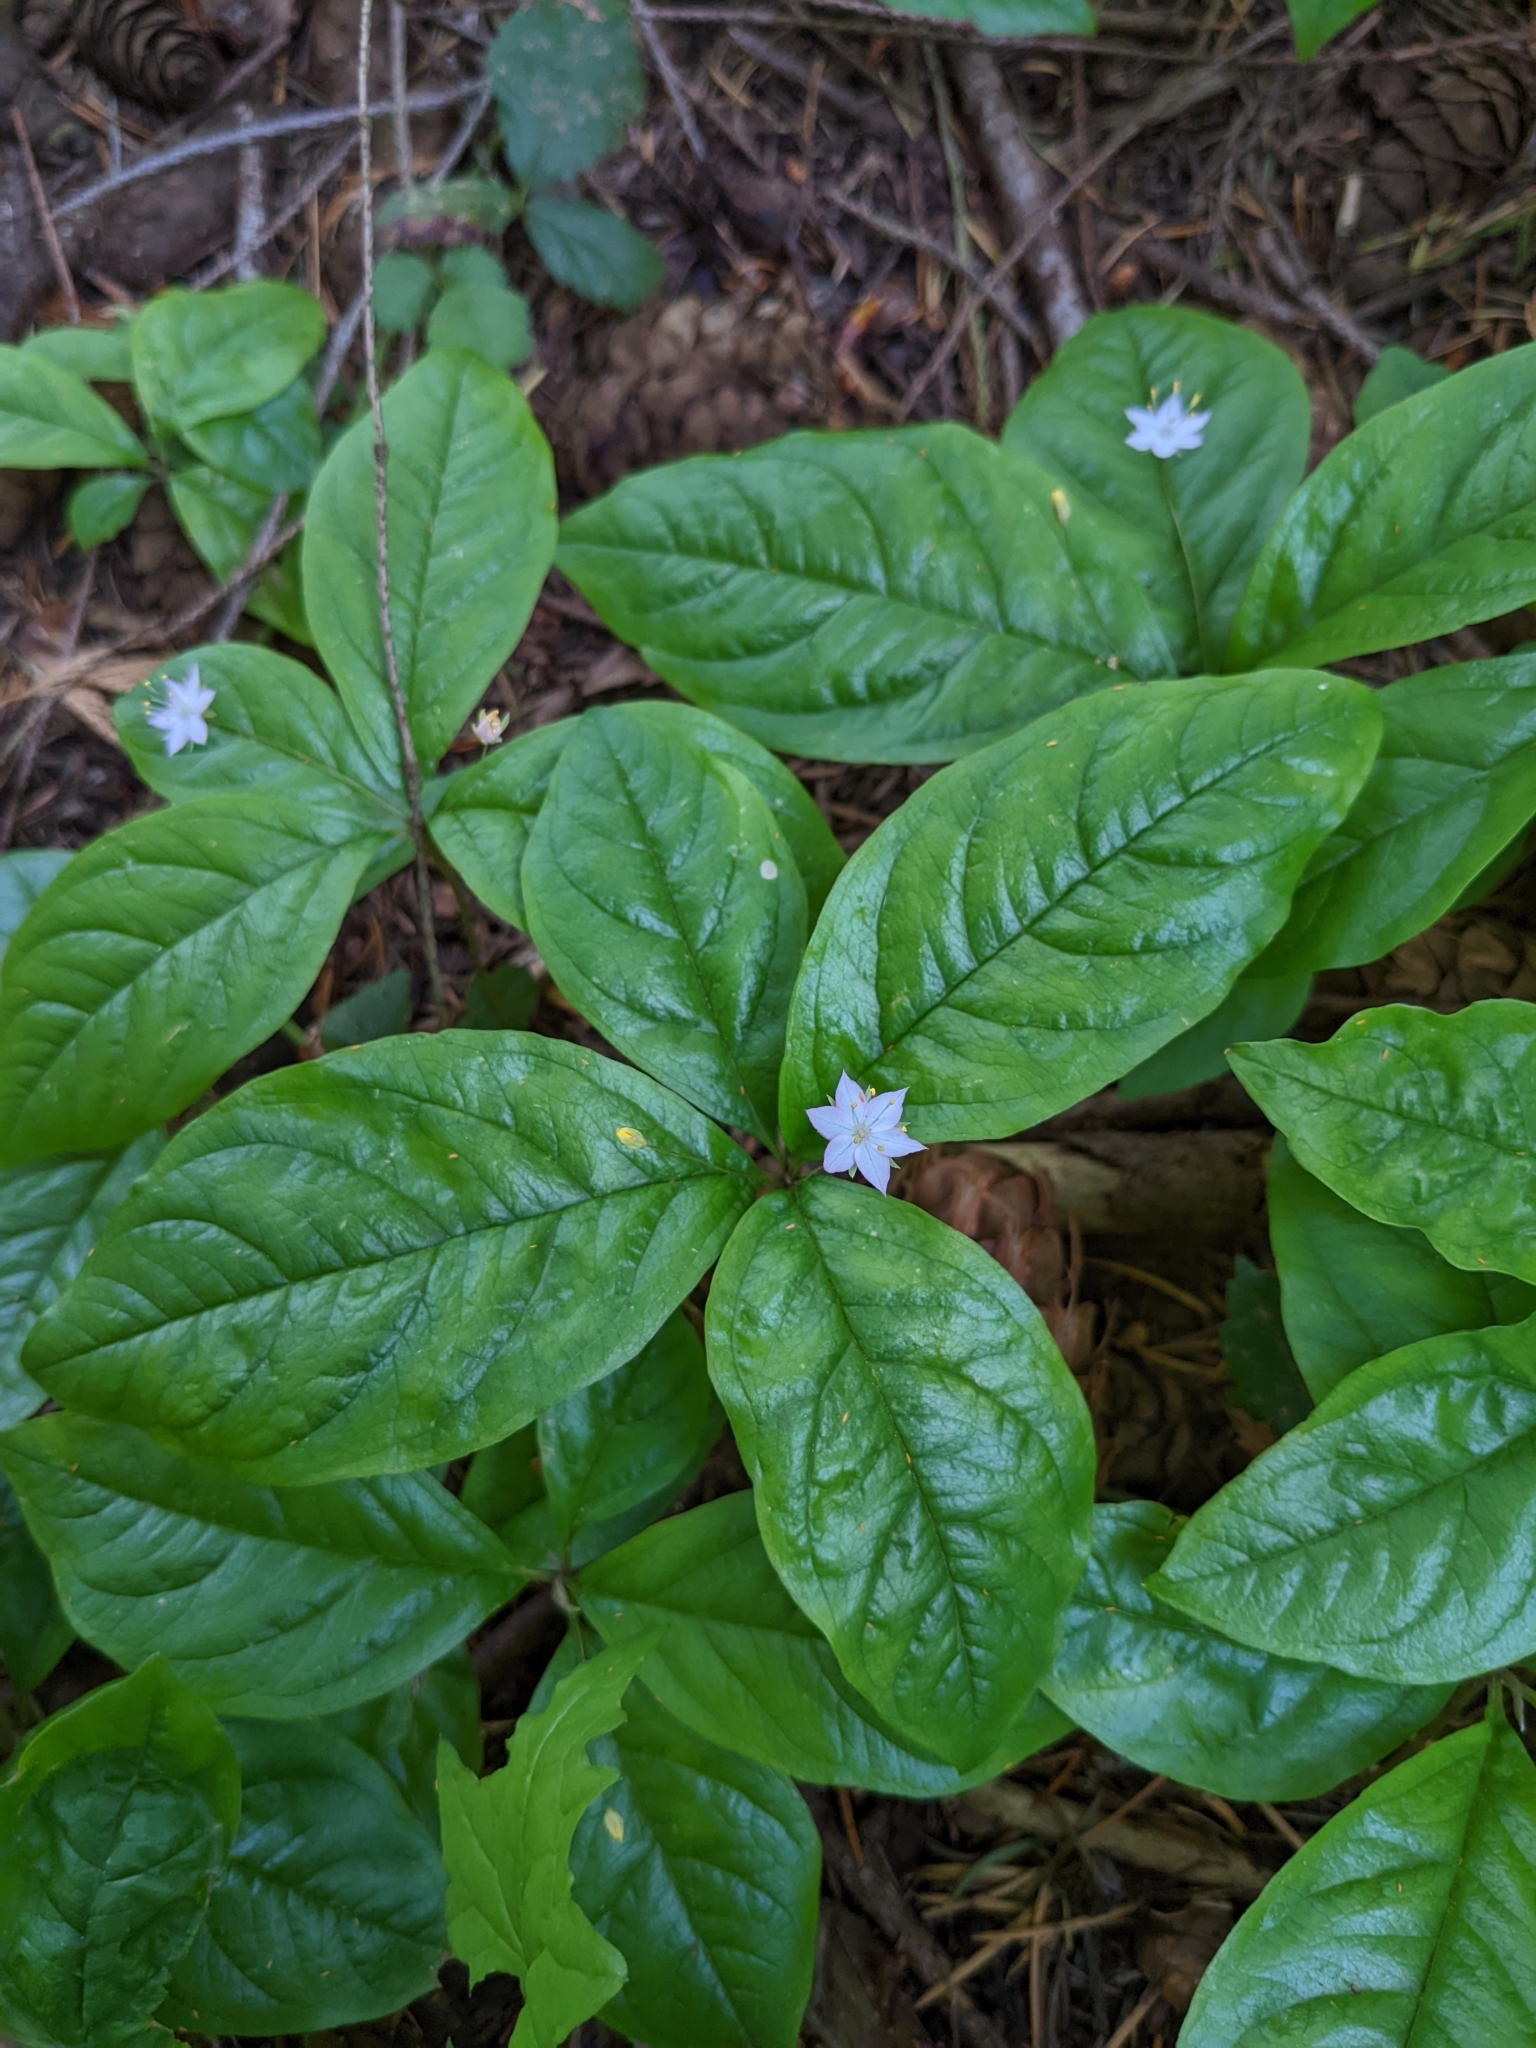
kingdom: Plantae
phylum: Tracheophyta
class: Magnoliopsida
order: Ericales
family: Primulaceae
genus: Lysimachia
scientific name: Lysimachia latifolia
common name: Pacific starflower
